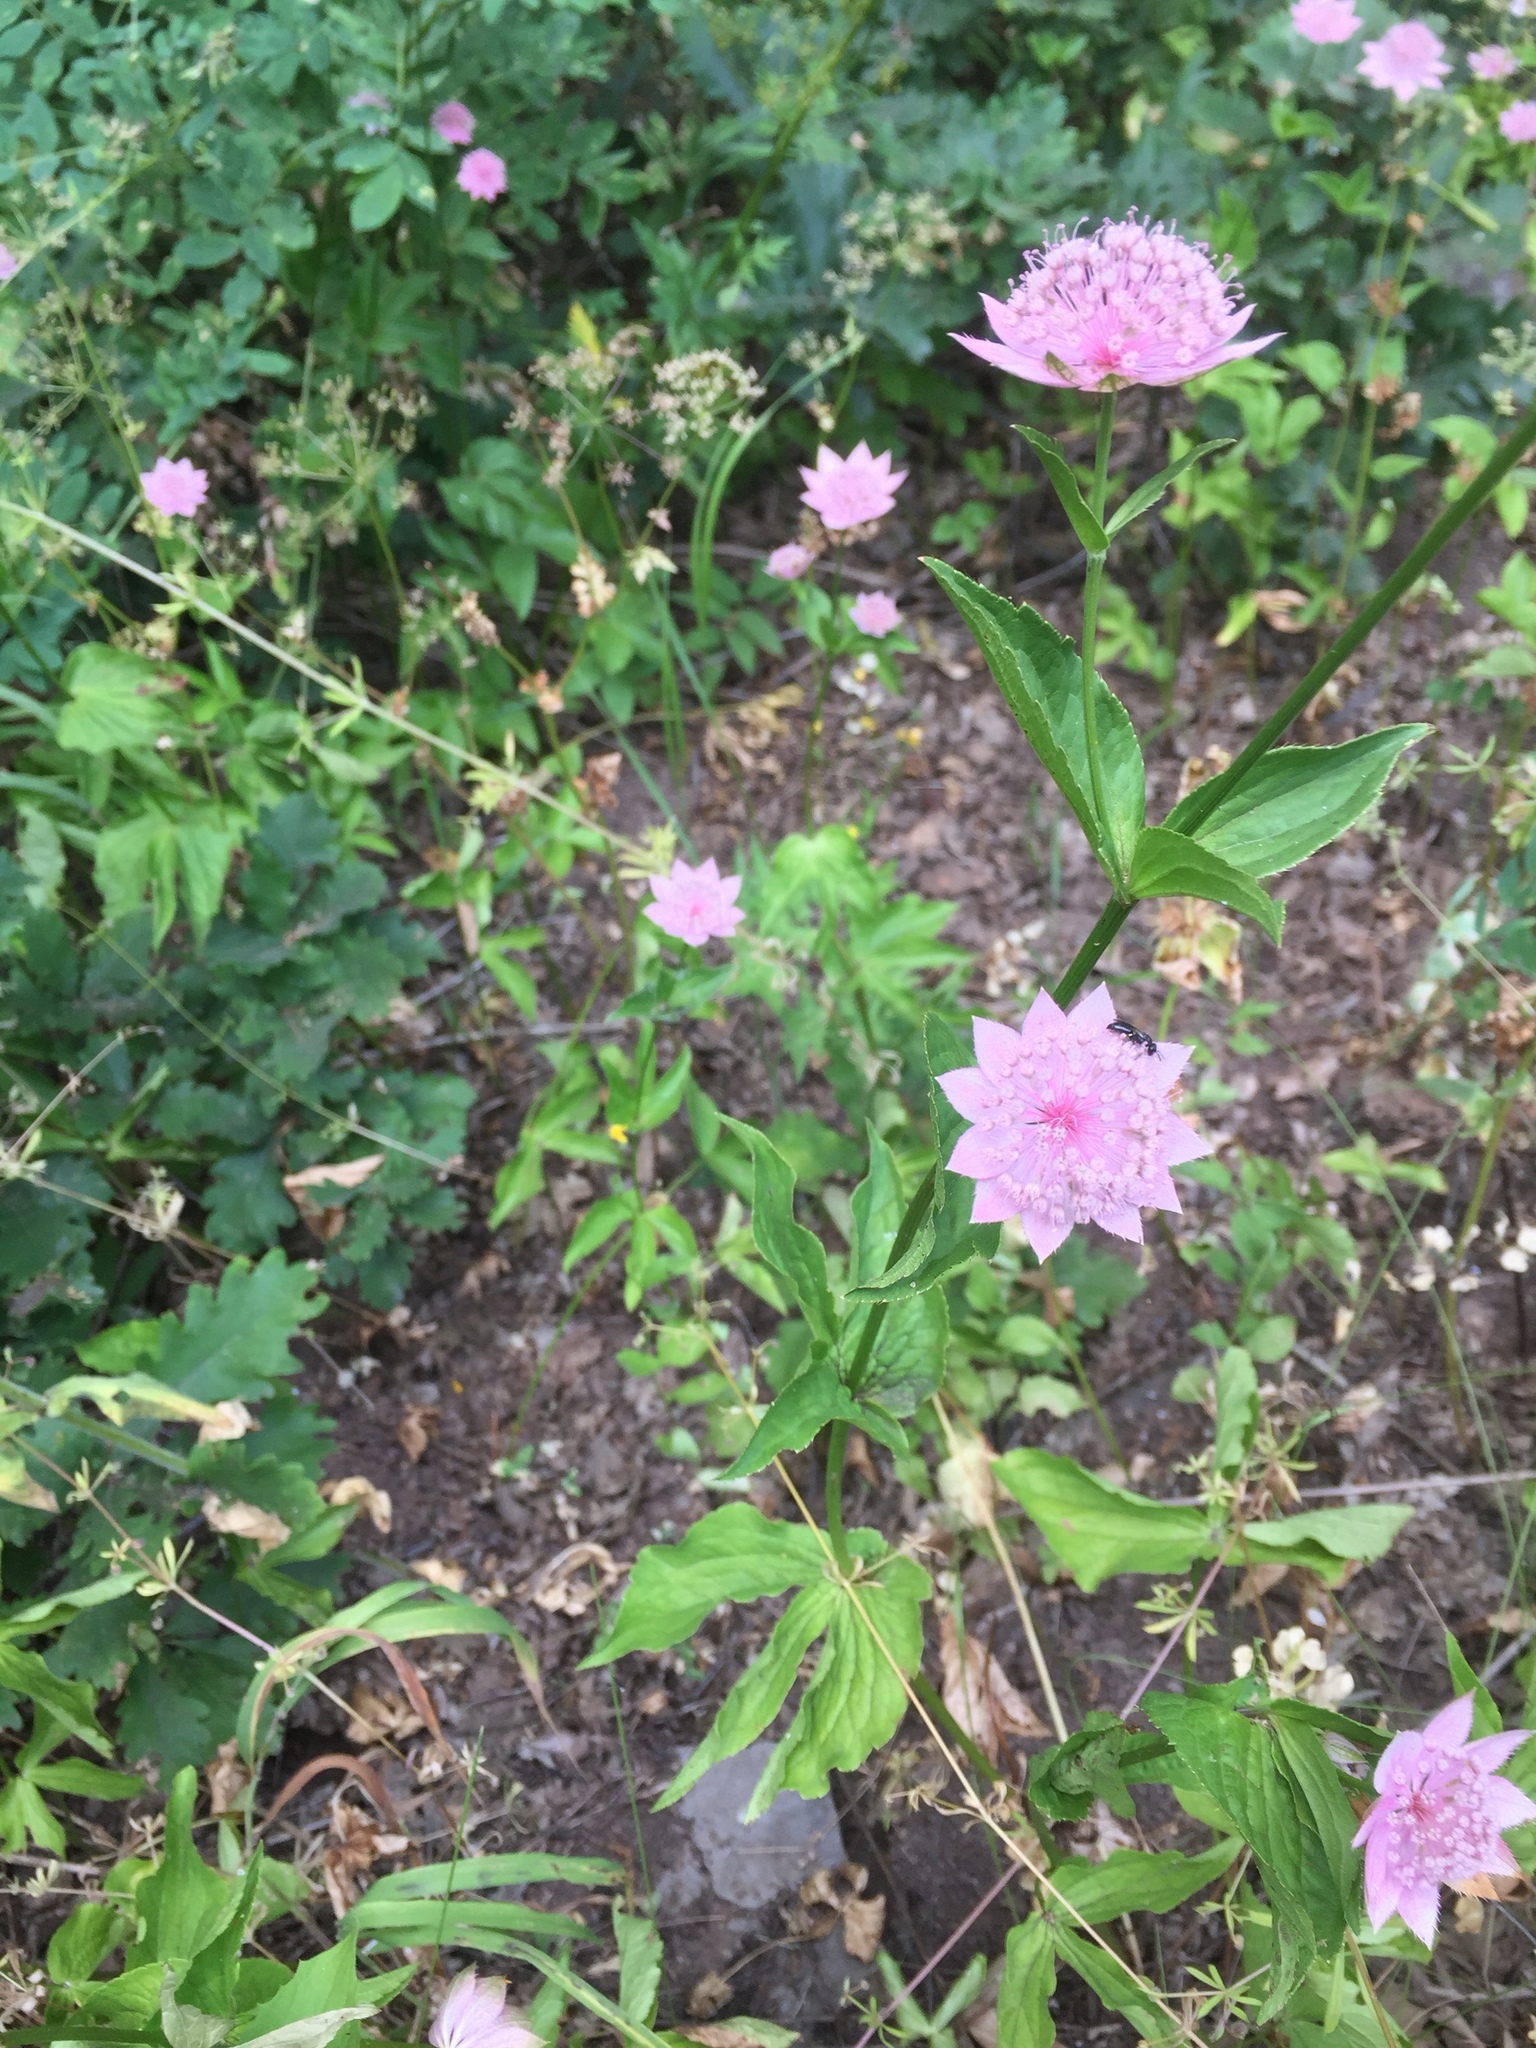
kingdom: Plantae
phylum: Tracheophyta
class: Magnoliopsida
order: Apiales
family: Apiaceae
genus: Astrantia
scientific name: Astrantia maxima
